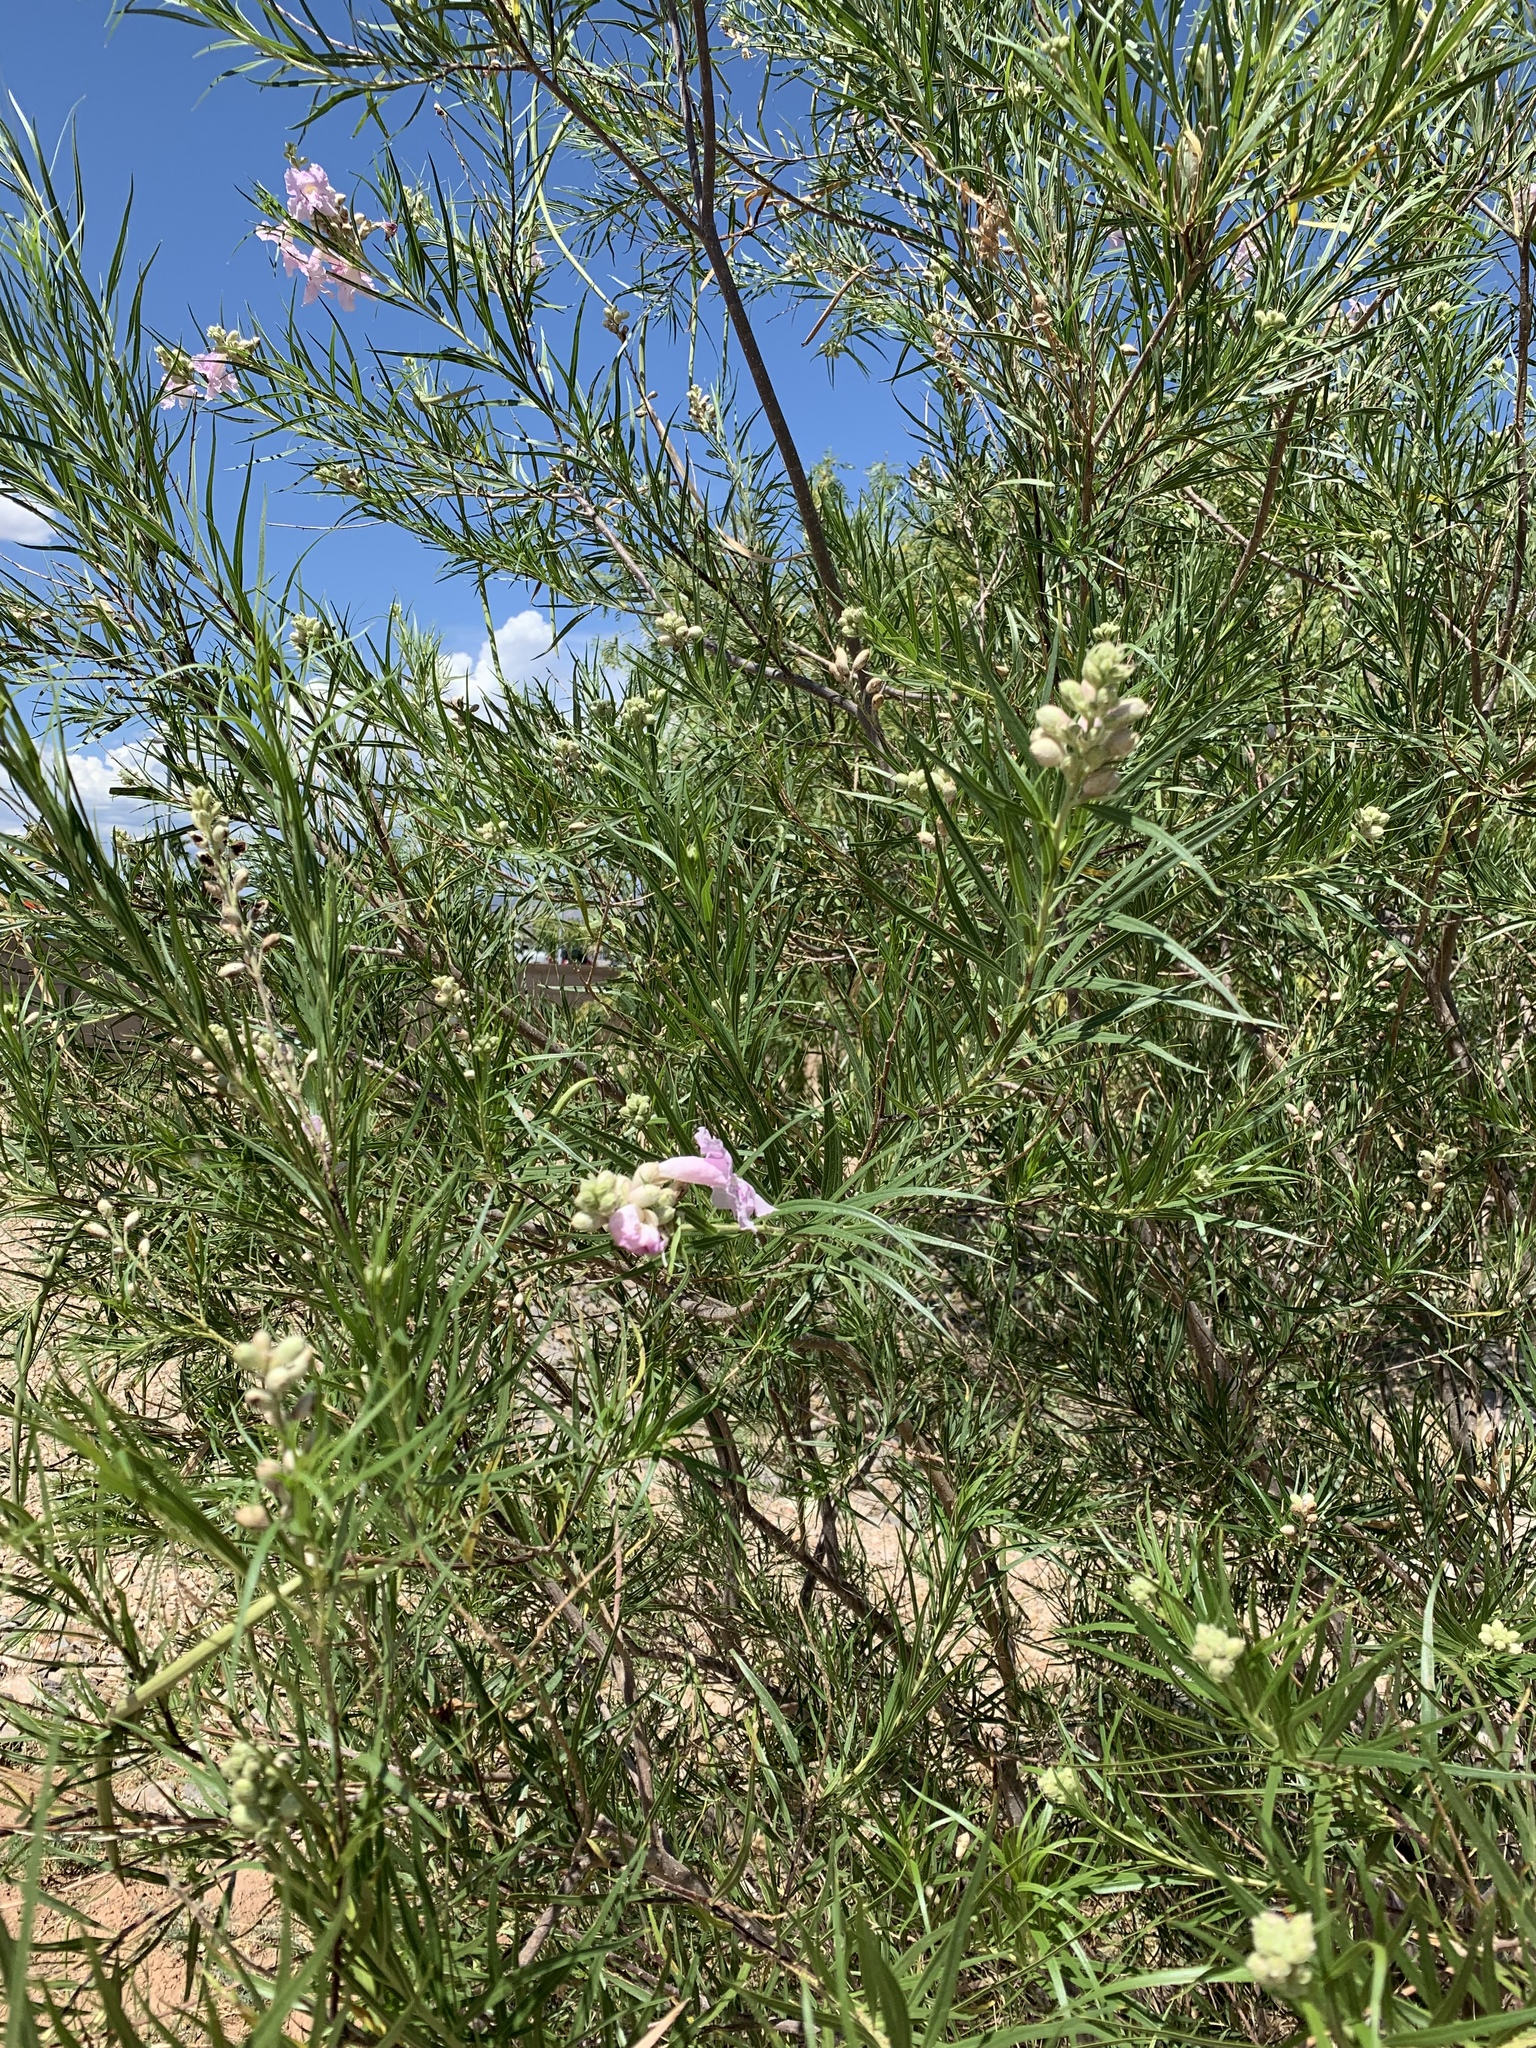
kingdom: Plantae
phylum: Tracheophyta
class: Magnoliopsida
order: Lamiales
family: Bignoniaceae
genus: Chilopsis
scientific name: Chilopsis linearis
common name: Desert-willow
